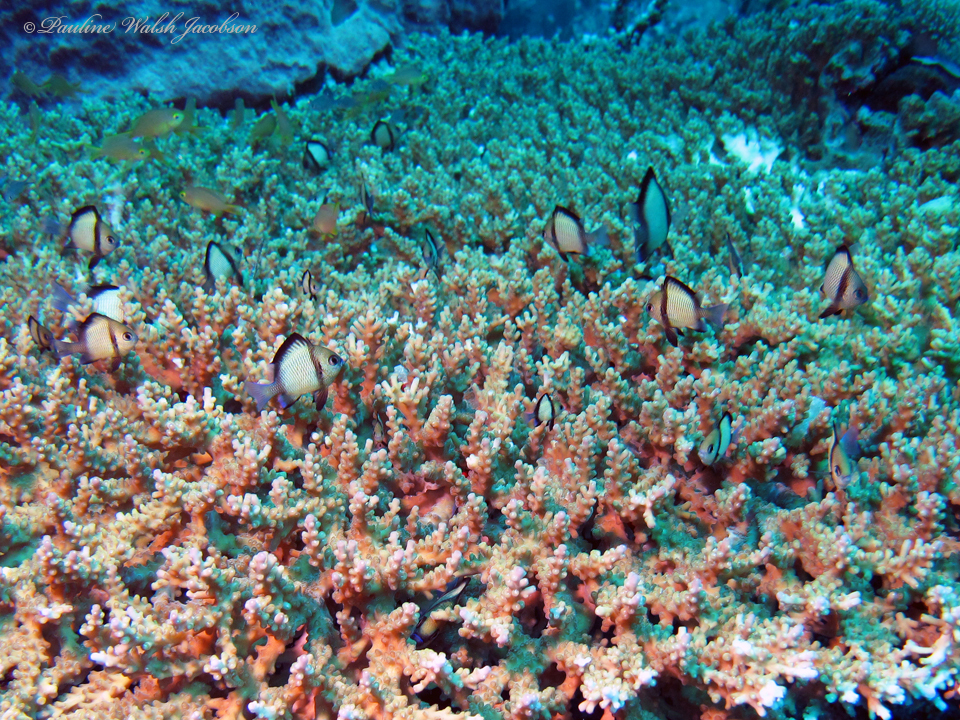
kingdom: Animalia
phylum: Chordata
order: Perciformes
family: Pomacentridae
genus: Dascyllus
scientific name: Dascyllus reticulatus
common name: Reticulated dascyllus
